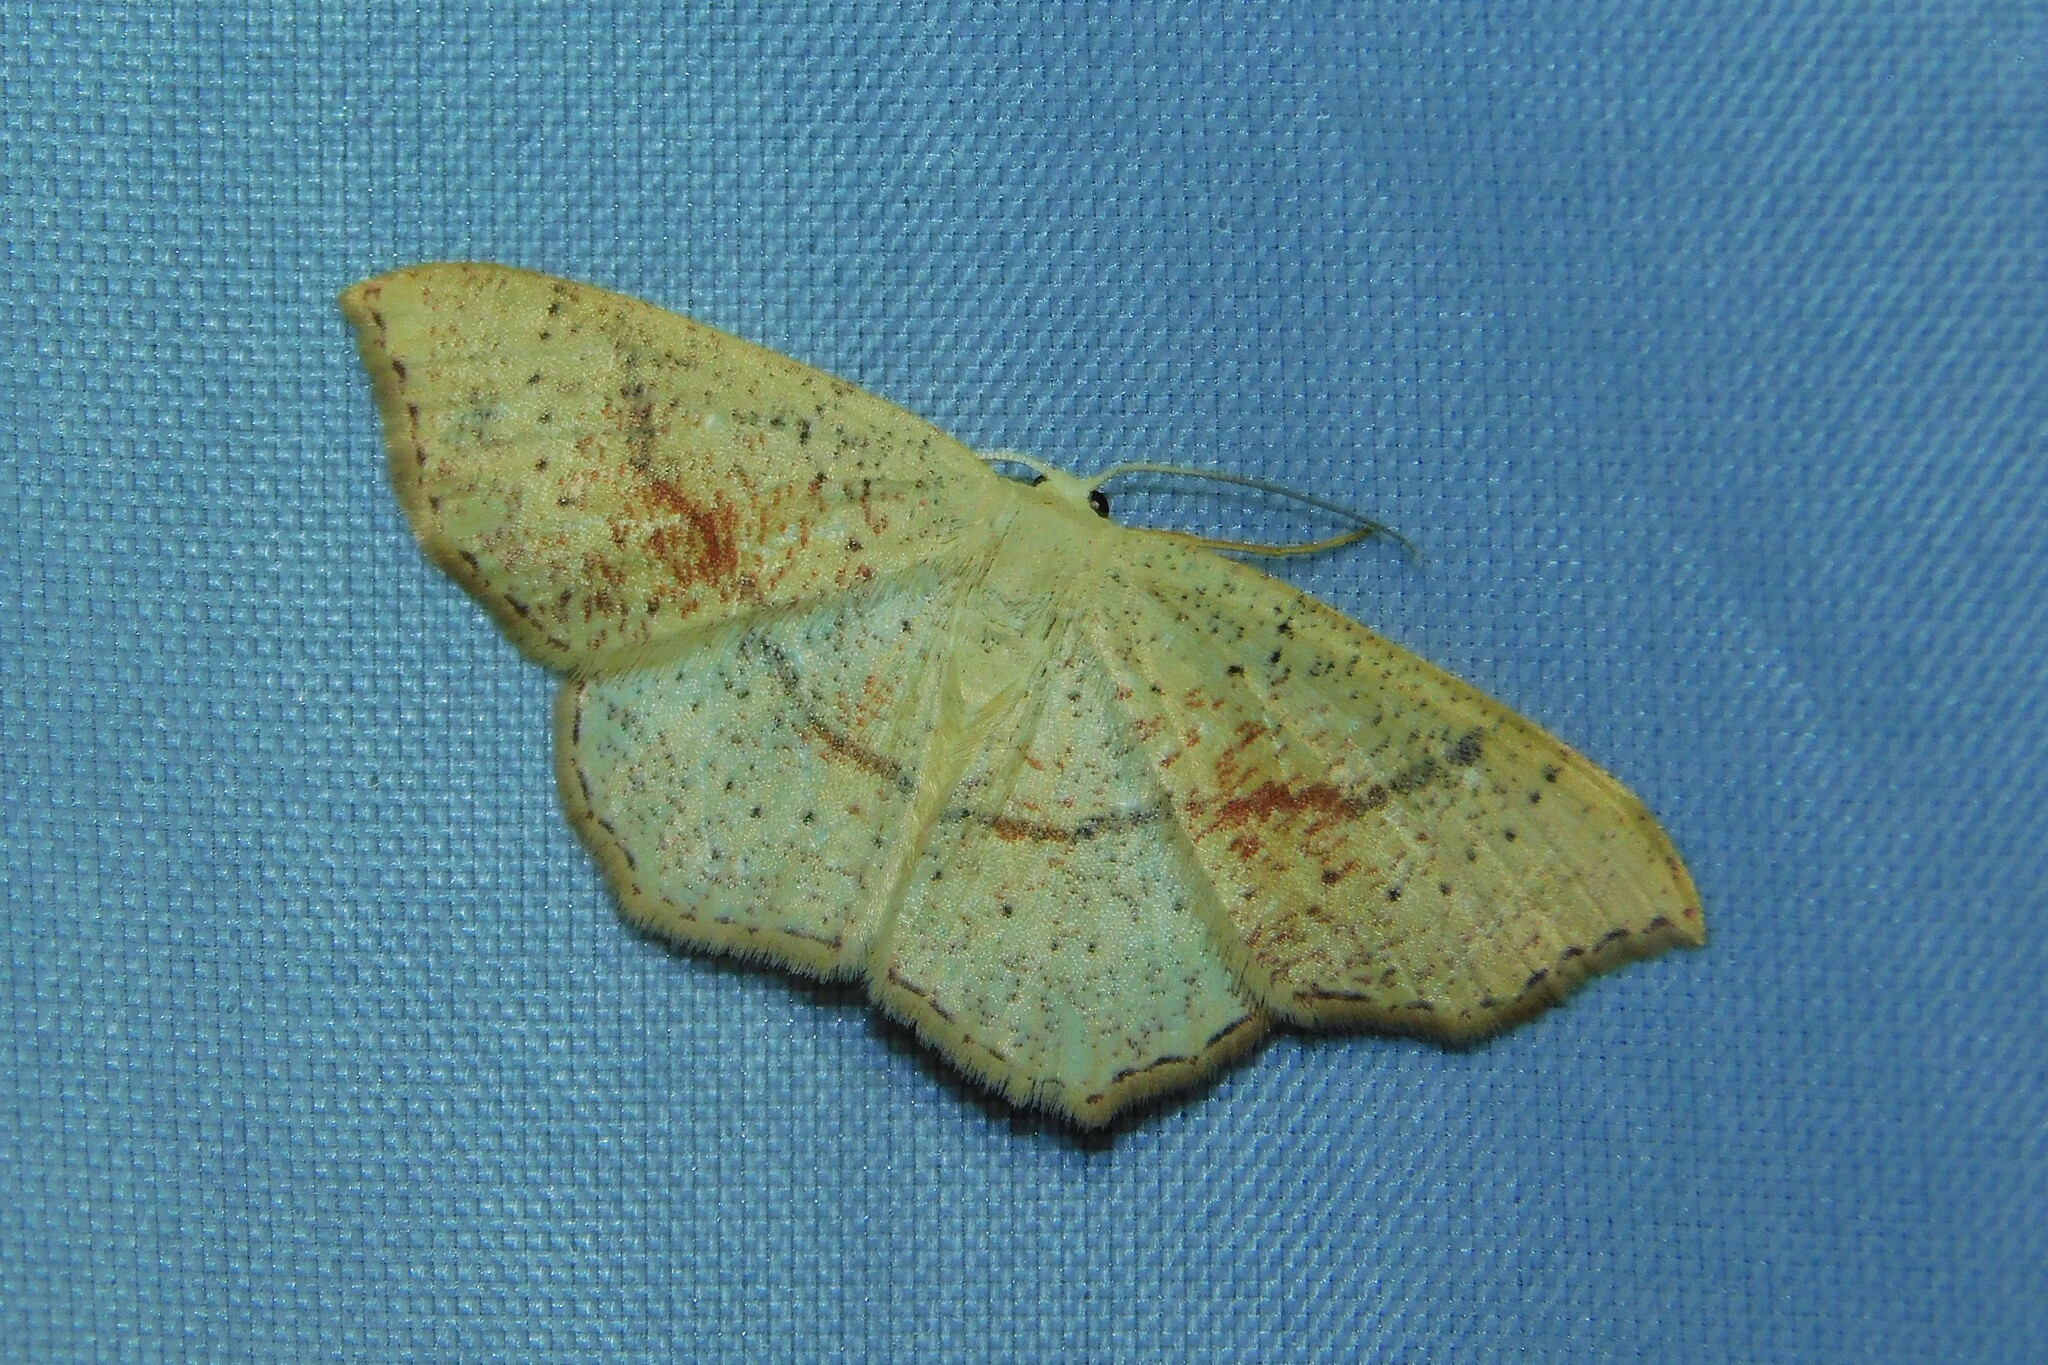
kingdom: Animalia
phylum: Arthropoda
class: Insecta
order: Lepidoptera
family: Geometridae
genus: Cyclophora
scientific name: Cyclophora punctaria
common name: Maiden's blush
